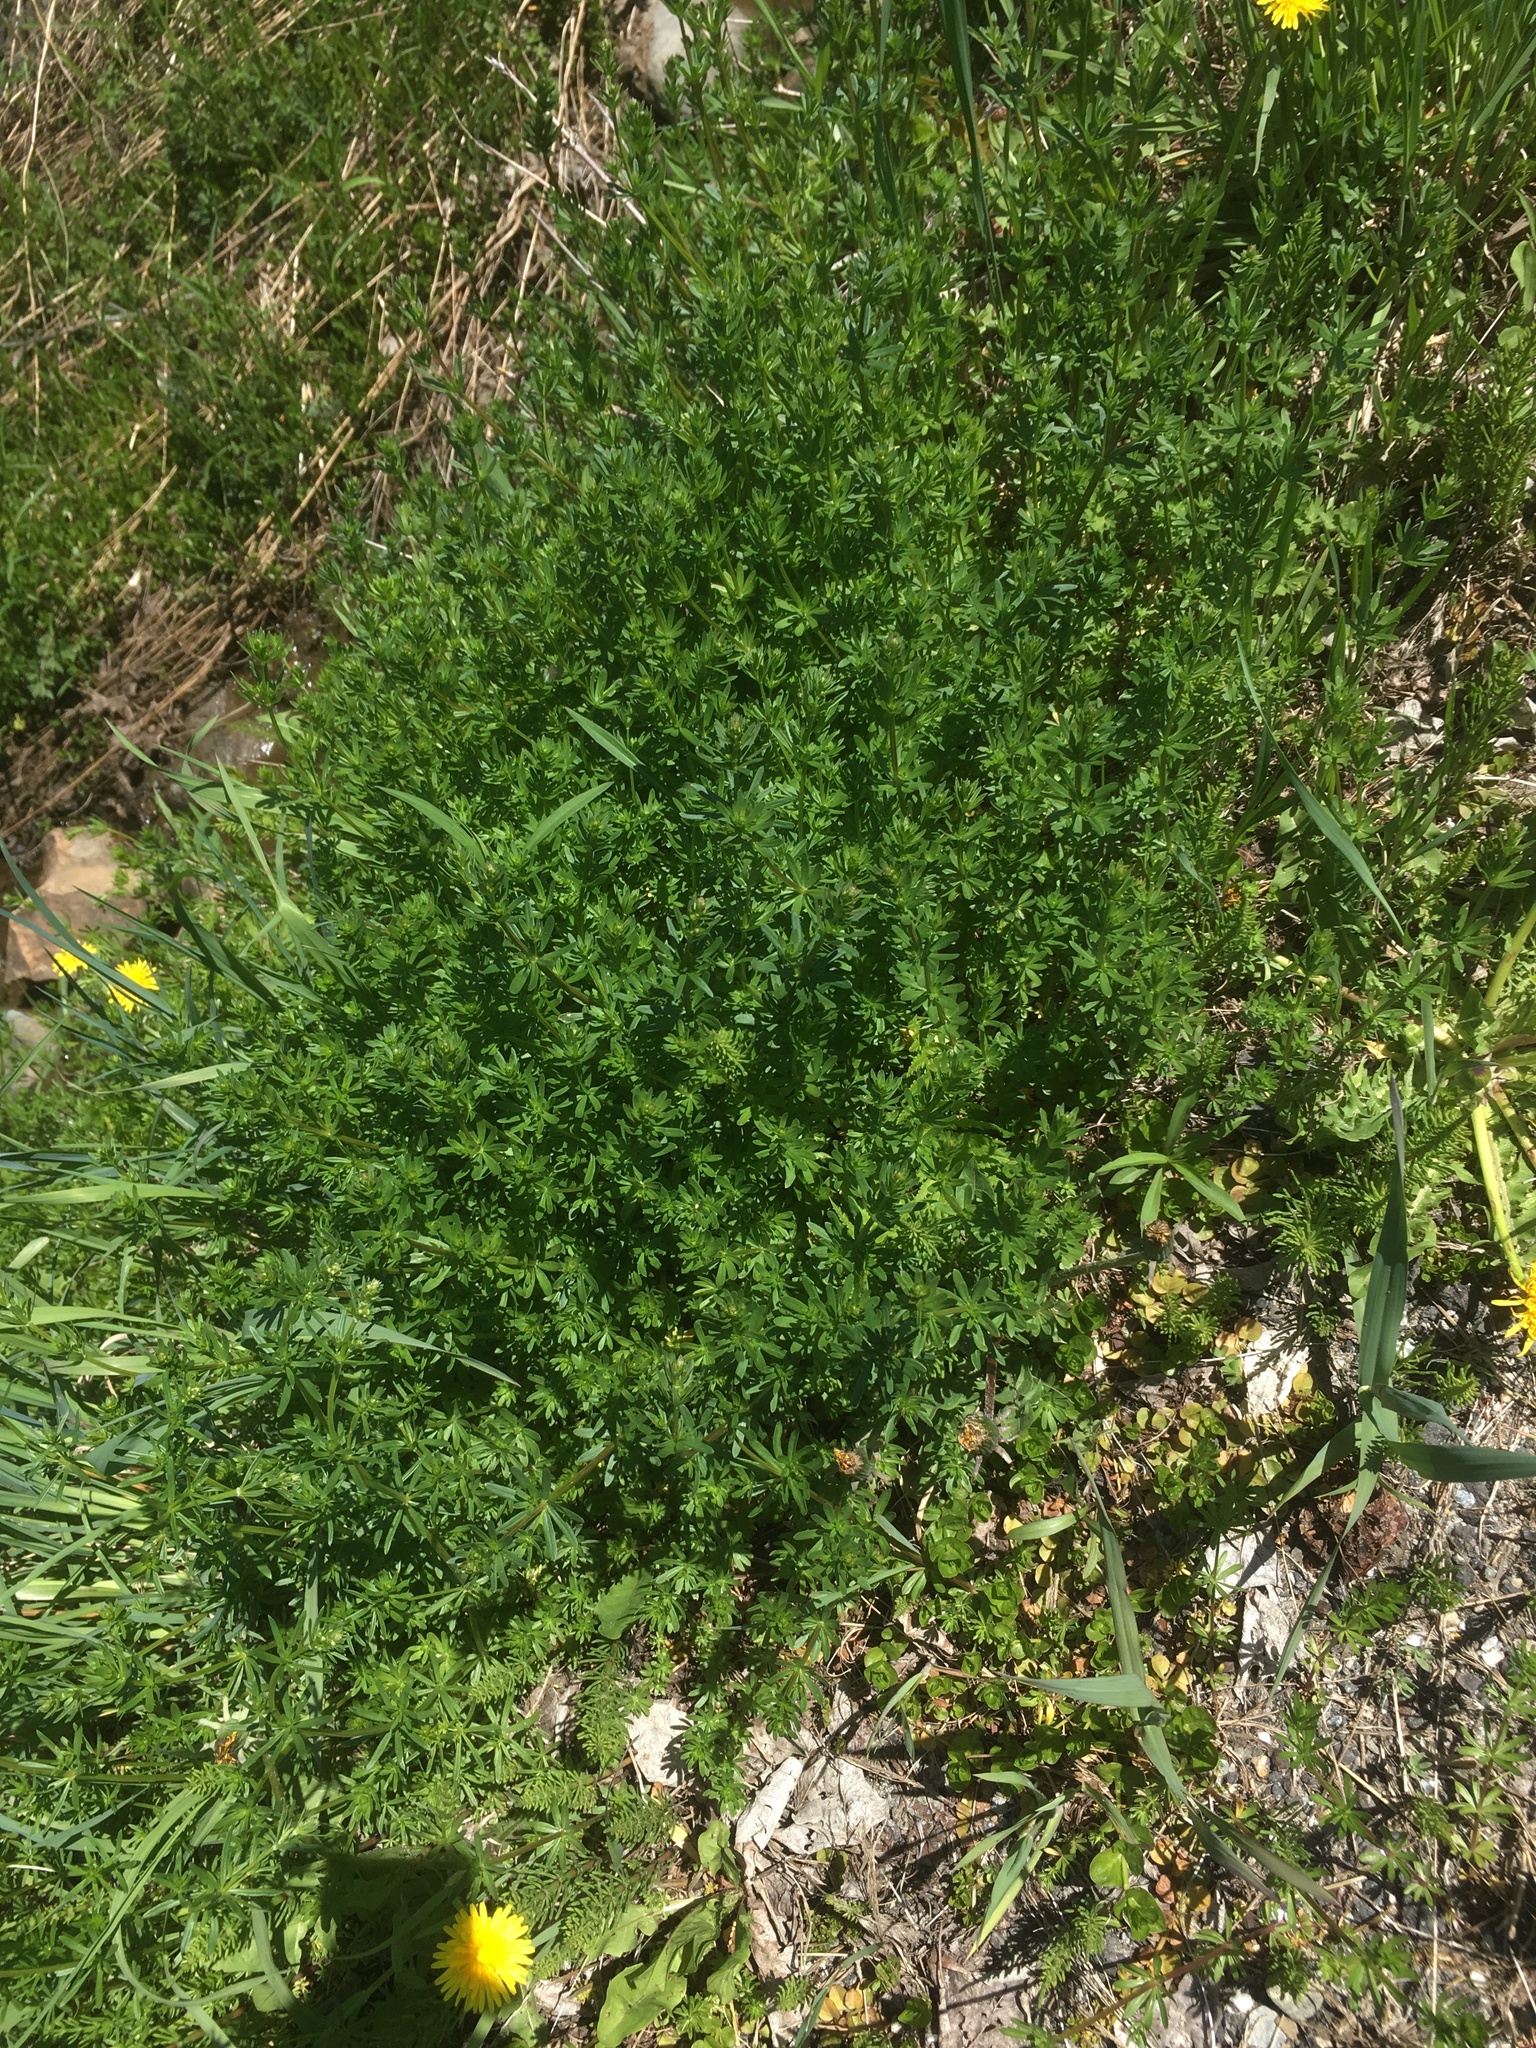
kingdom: Plantae
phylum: Tracheophyta
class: Magnoliopsida
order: Gentianales
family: Rubiaceae
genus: Galium
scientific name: Galium mollugo
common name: Hedge bedstraw
